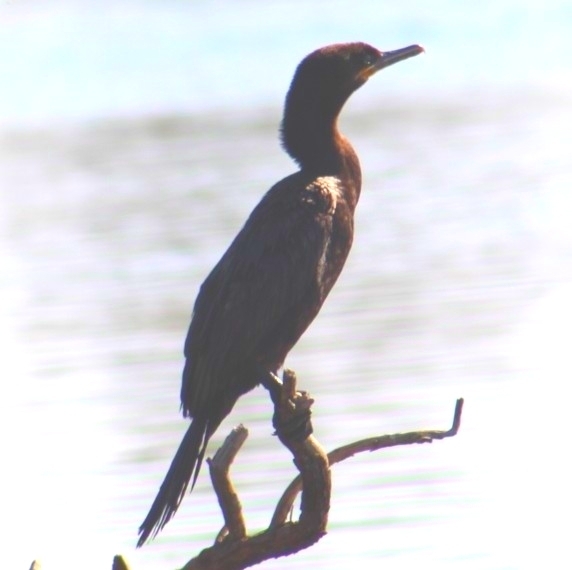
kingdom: Animalia
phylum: Chordata
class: Aves
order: Suliformes
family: Phalacrocoracidae
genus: Phalacrocorax
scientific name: Phalacrocorax brasilianus
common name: Neotropic cormorant
